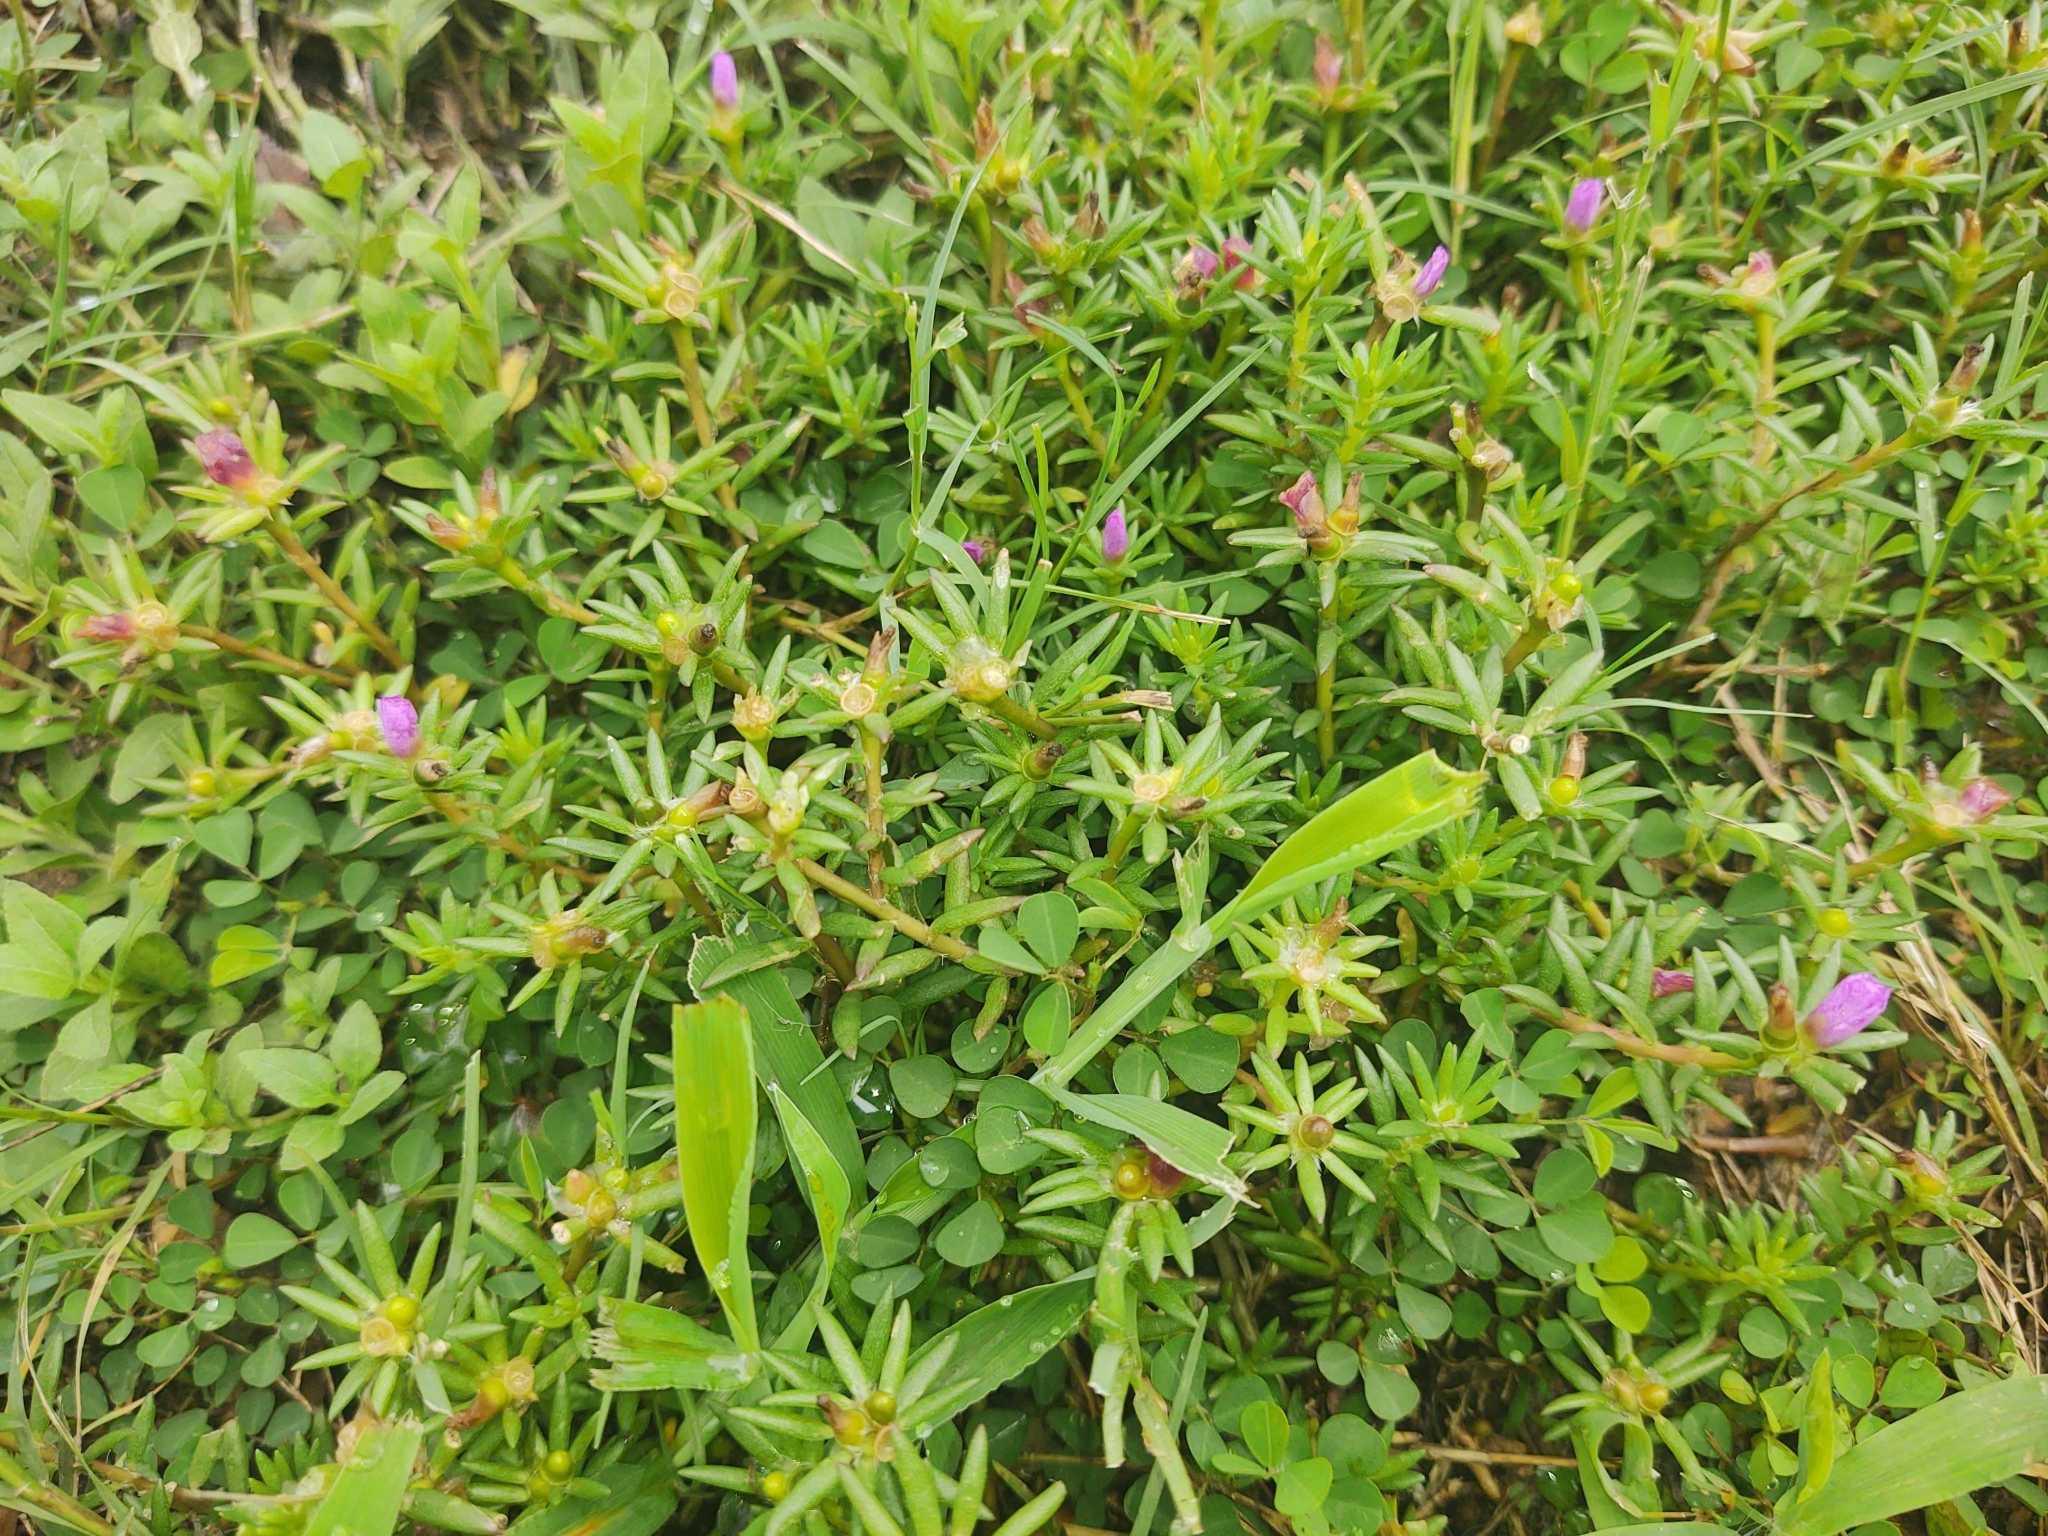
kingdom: Plantae
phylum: Tracheophyta
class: Magnoliopsida
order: Caryophyllales
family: Portulacaceae
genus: Portulaca
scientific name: Portulaca pilosa
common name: Kiss me quick
